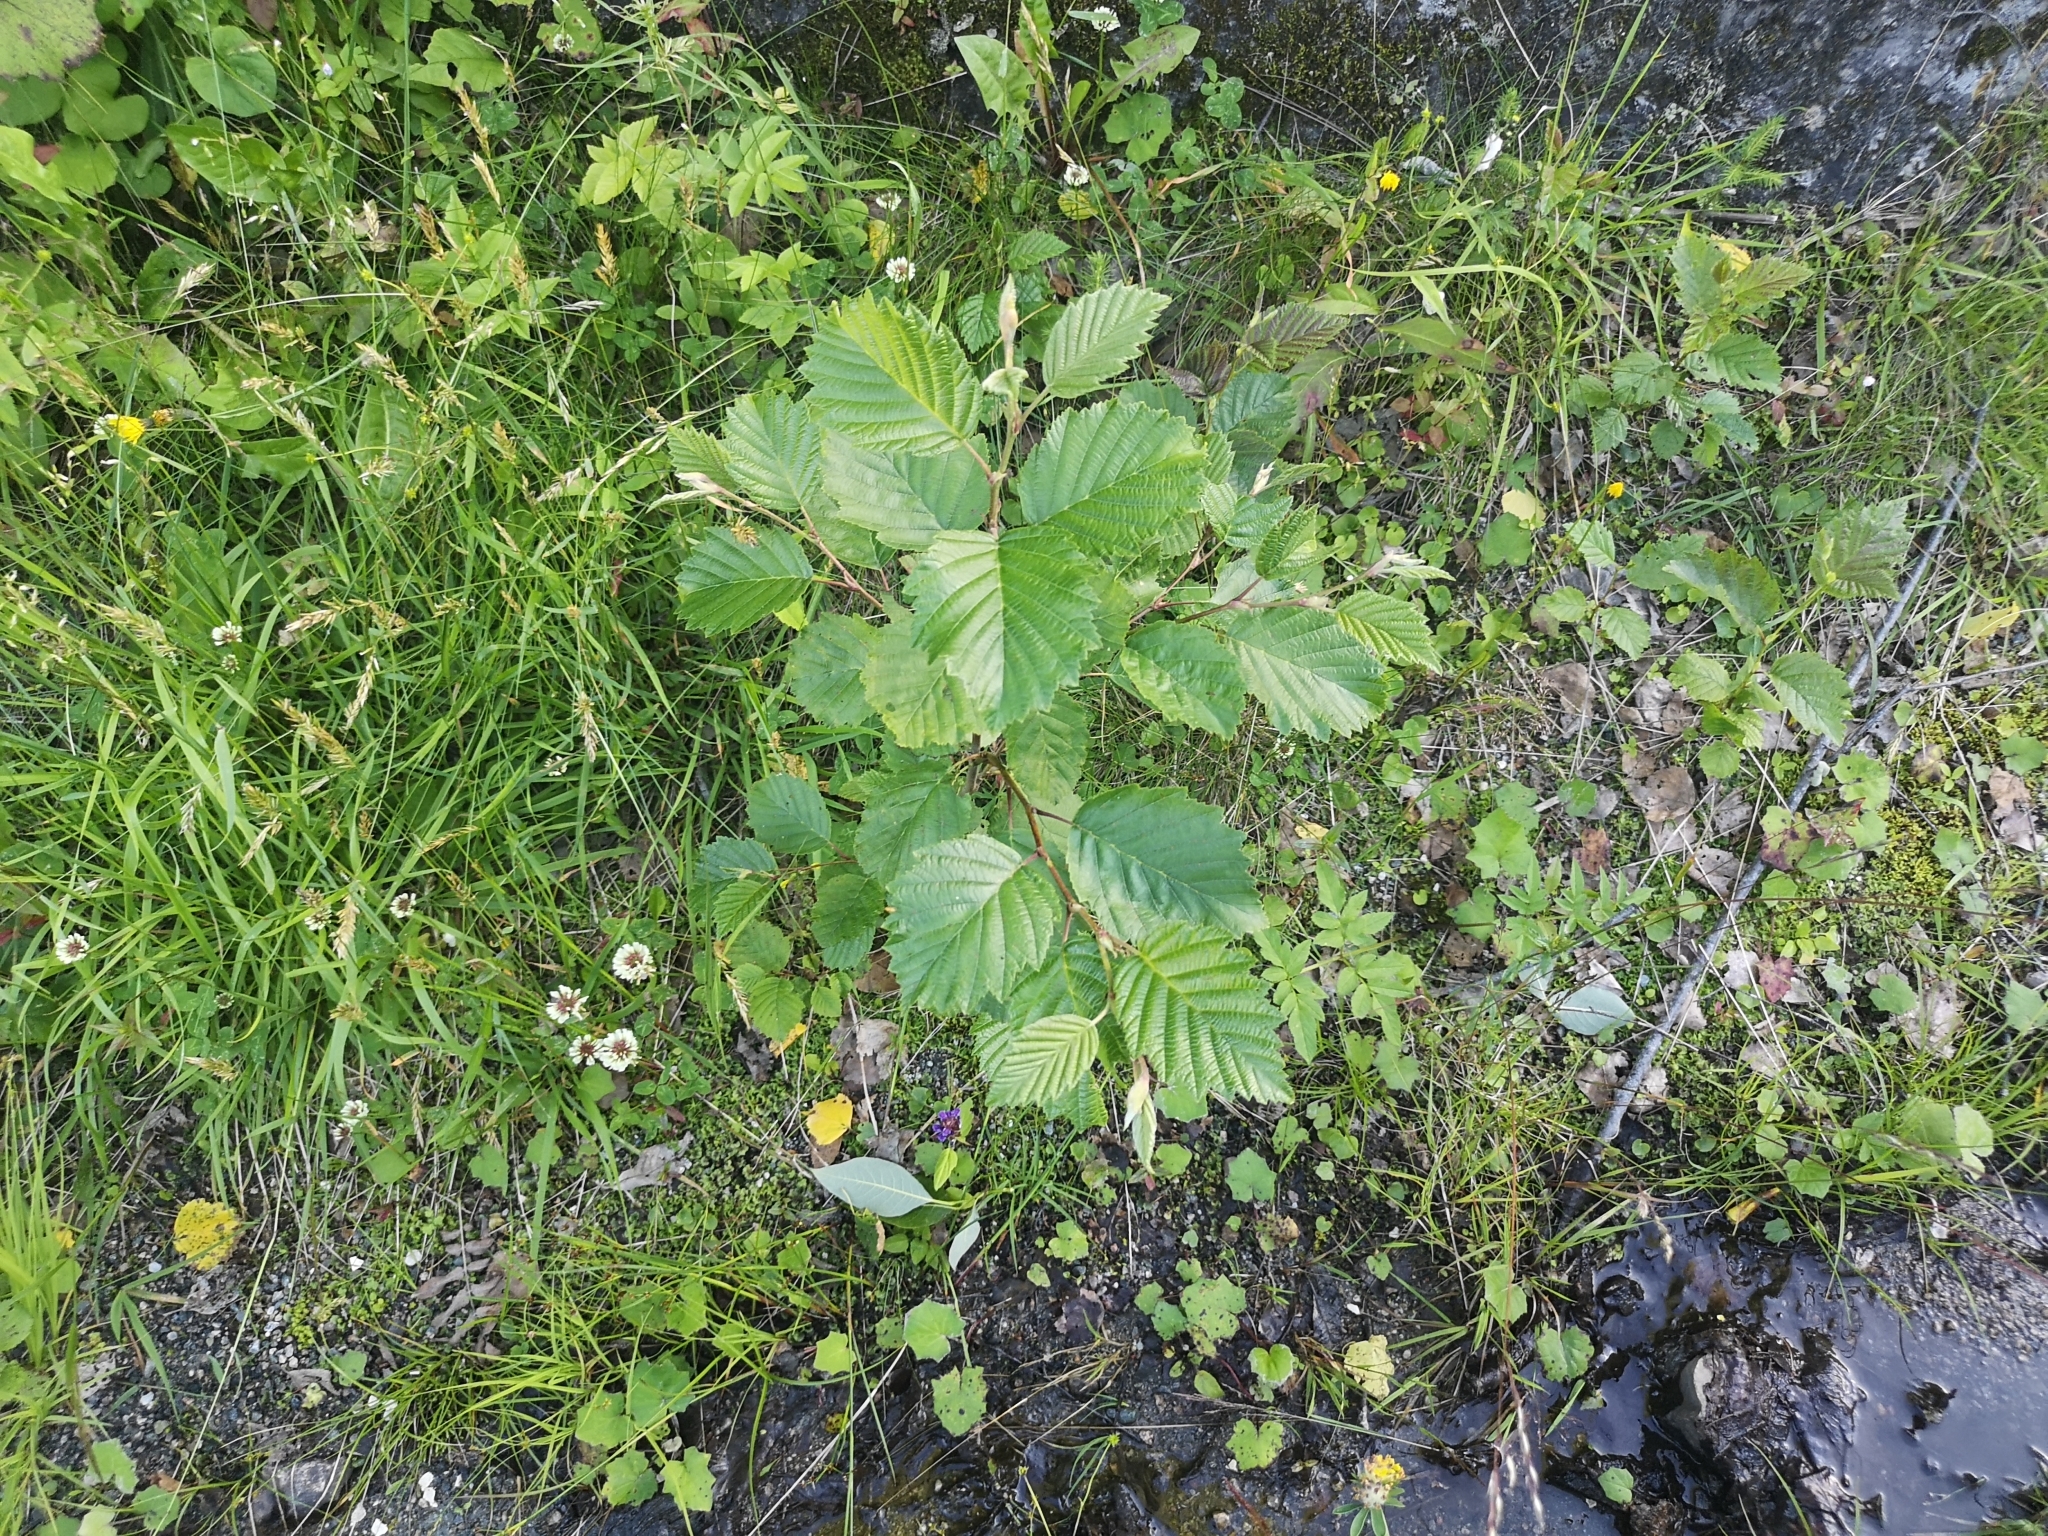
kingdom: Plantae
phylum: Tracheophyta
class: Magnoliopsida
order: Fagales
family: Betulaceae
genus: Alnus
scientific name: Alnus incana
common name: Grey alder
